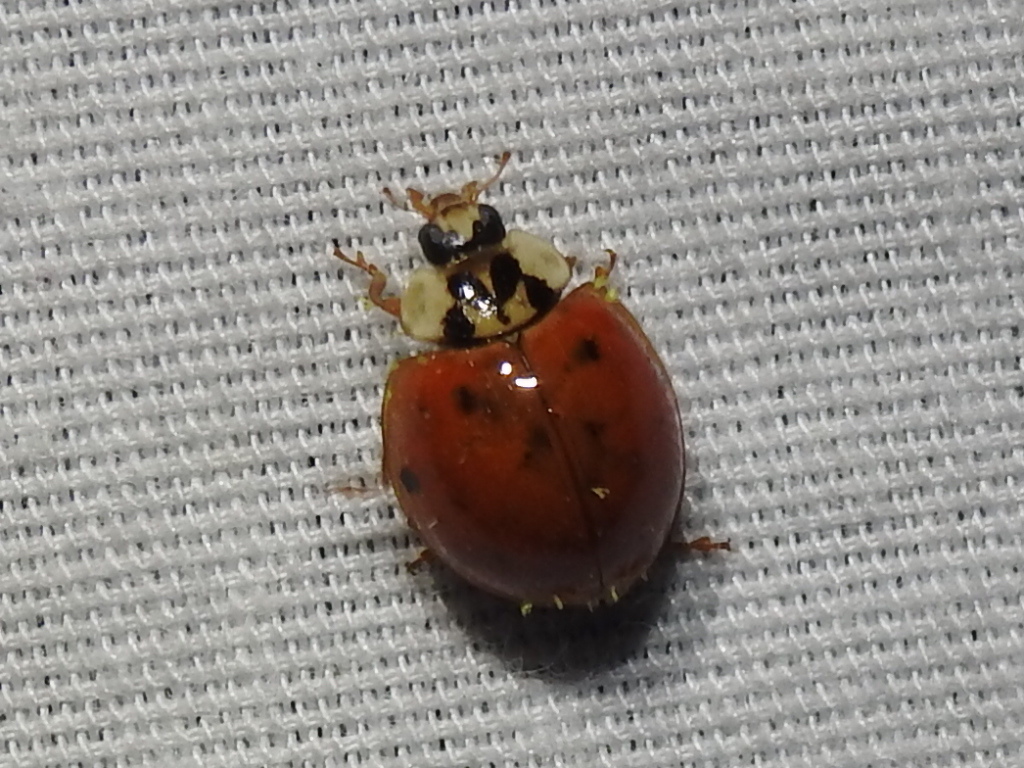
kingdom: Animalia
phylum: Arthropoda
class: Insecta
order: Coleoptera
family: Coccinellidae
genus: Harmonia
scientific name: Harmonia axyridis
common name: Harlequin ladybird
